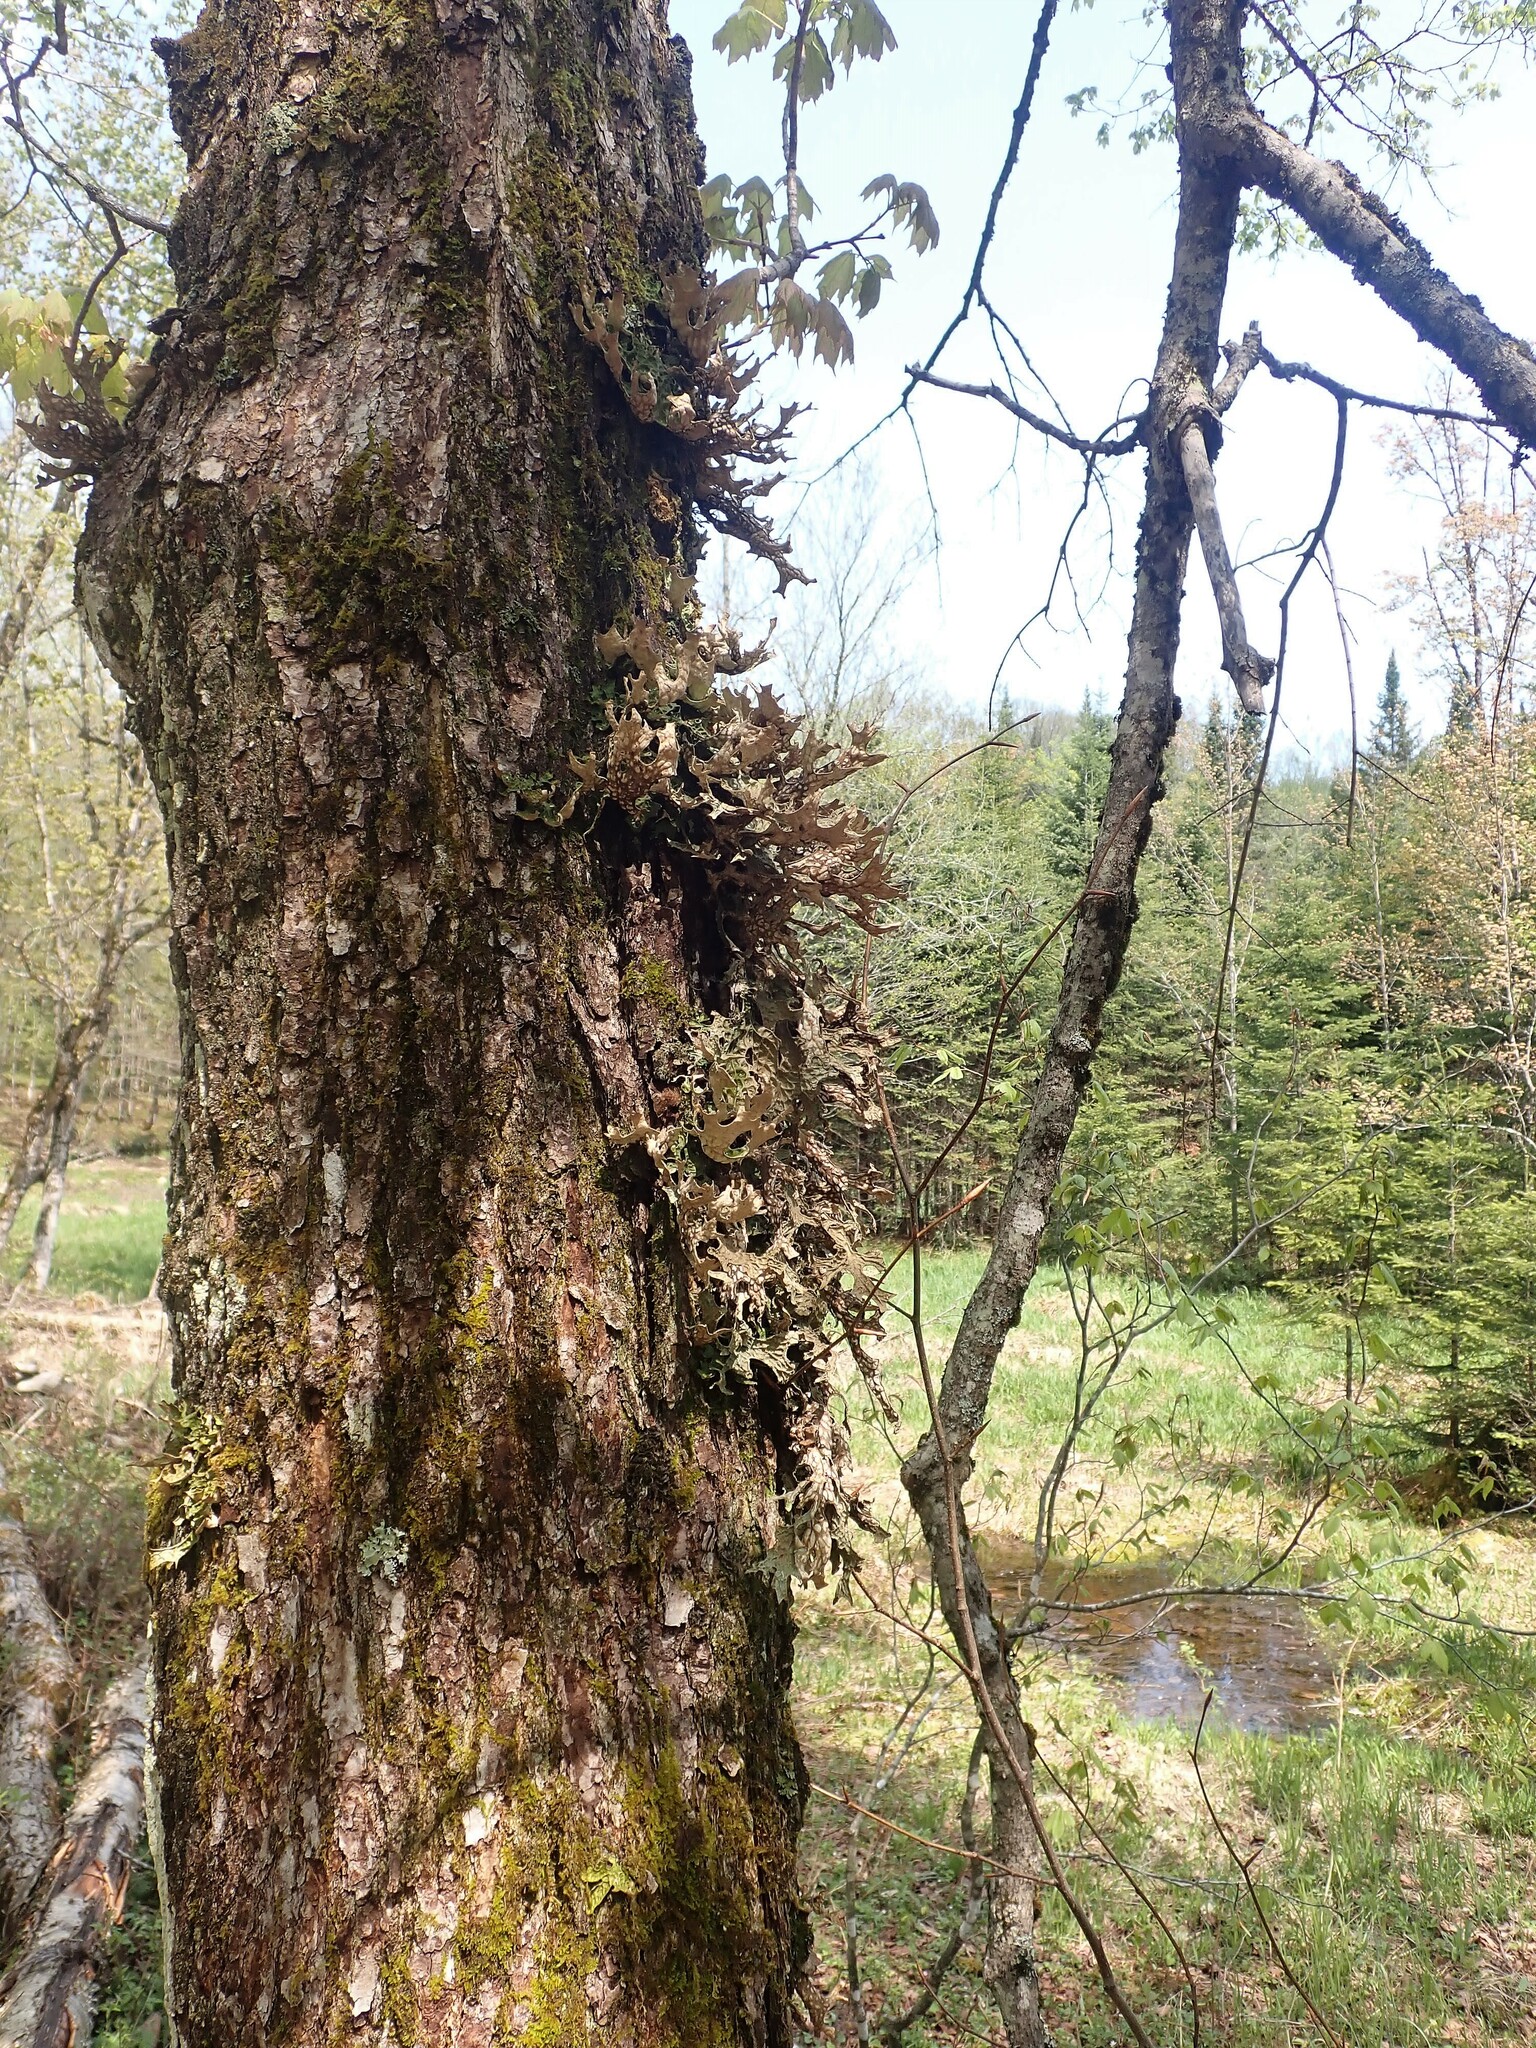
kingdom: Fungi
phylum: Ascomycota
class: Lecanoromycetes
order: Peltigerales
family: Lobariaceae
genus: Lobaria
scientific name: Lobaria pulmonaria
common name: Lungwort
